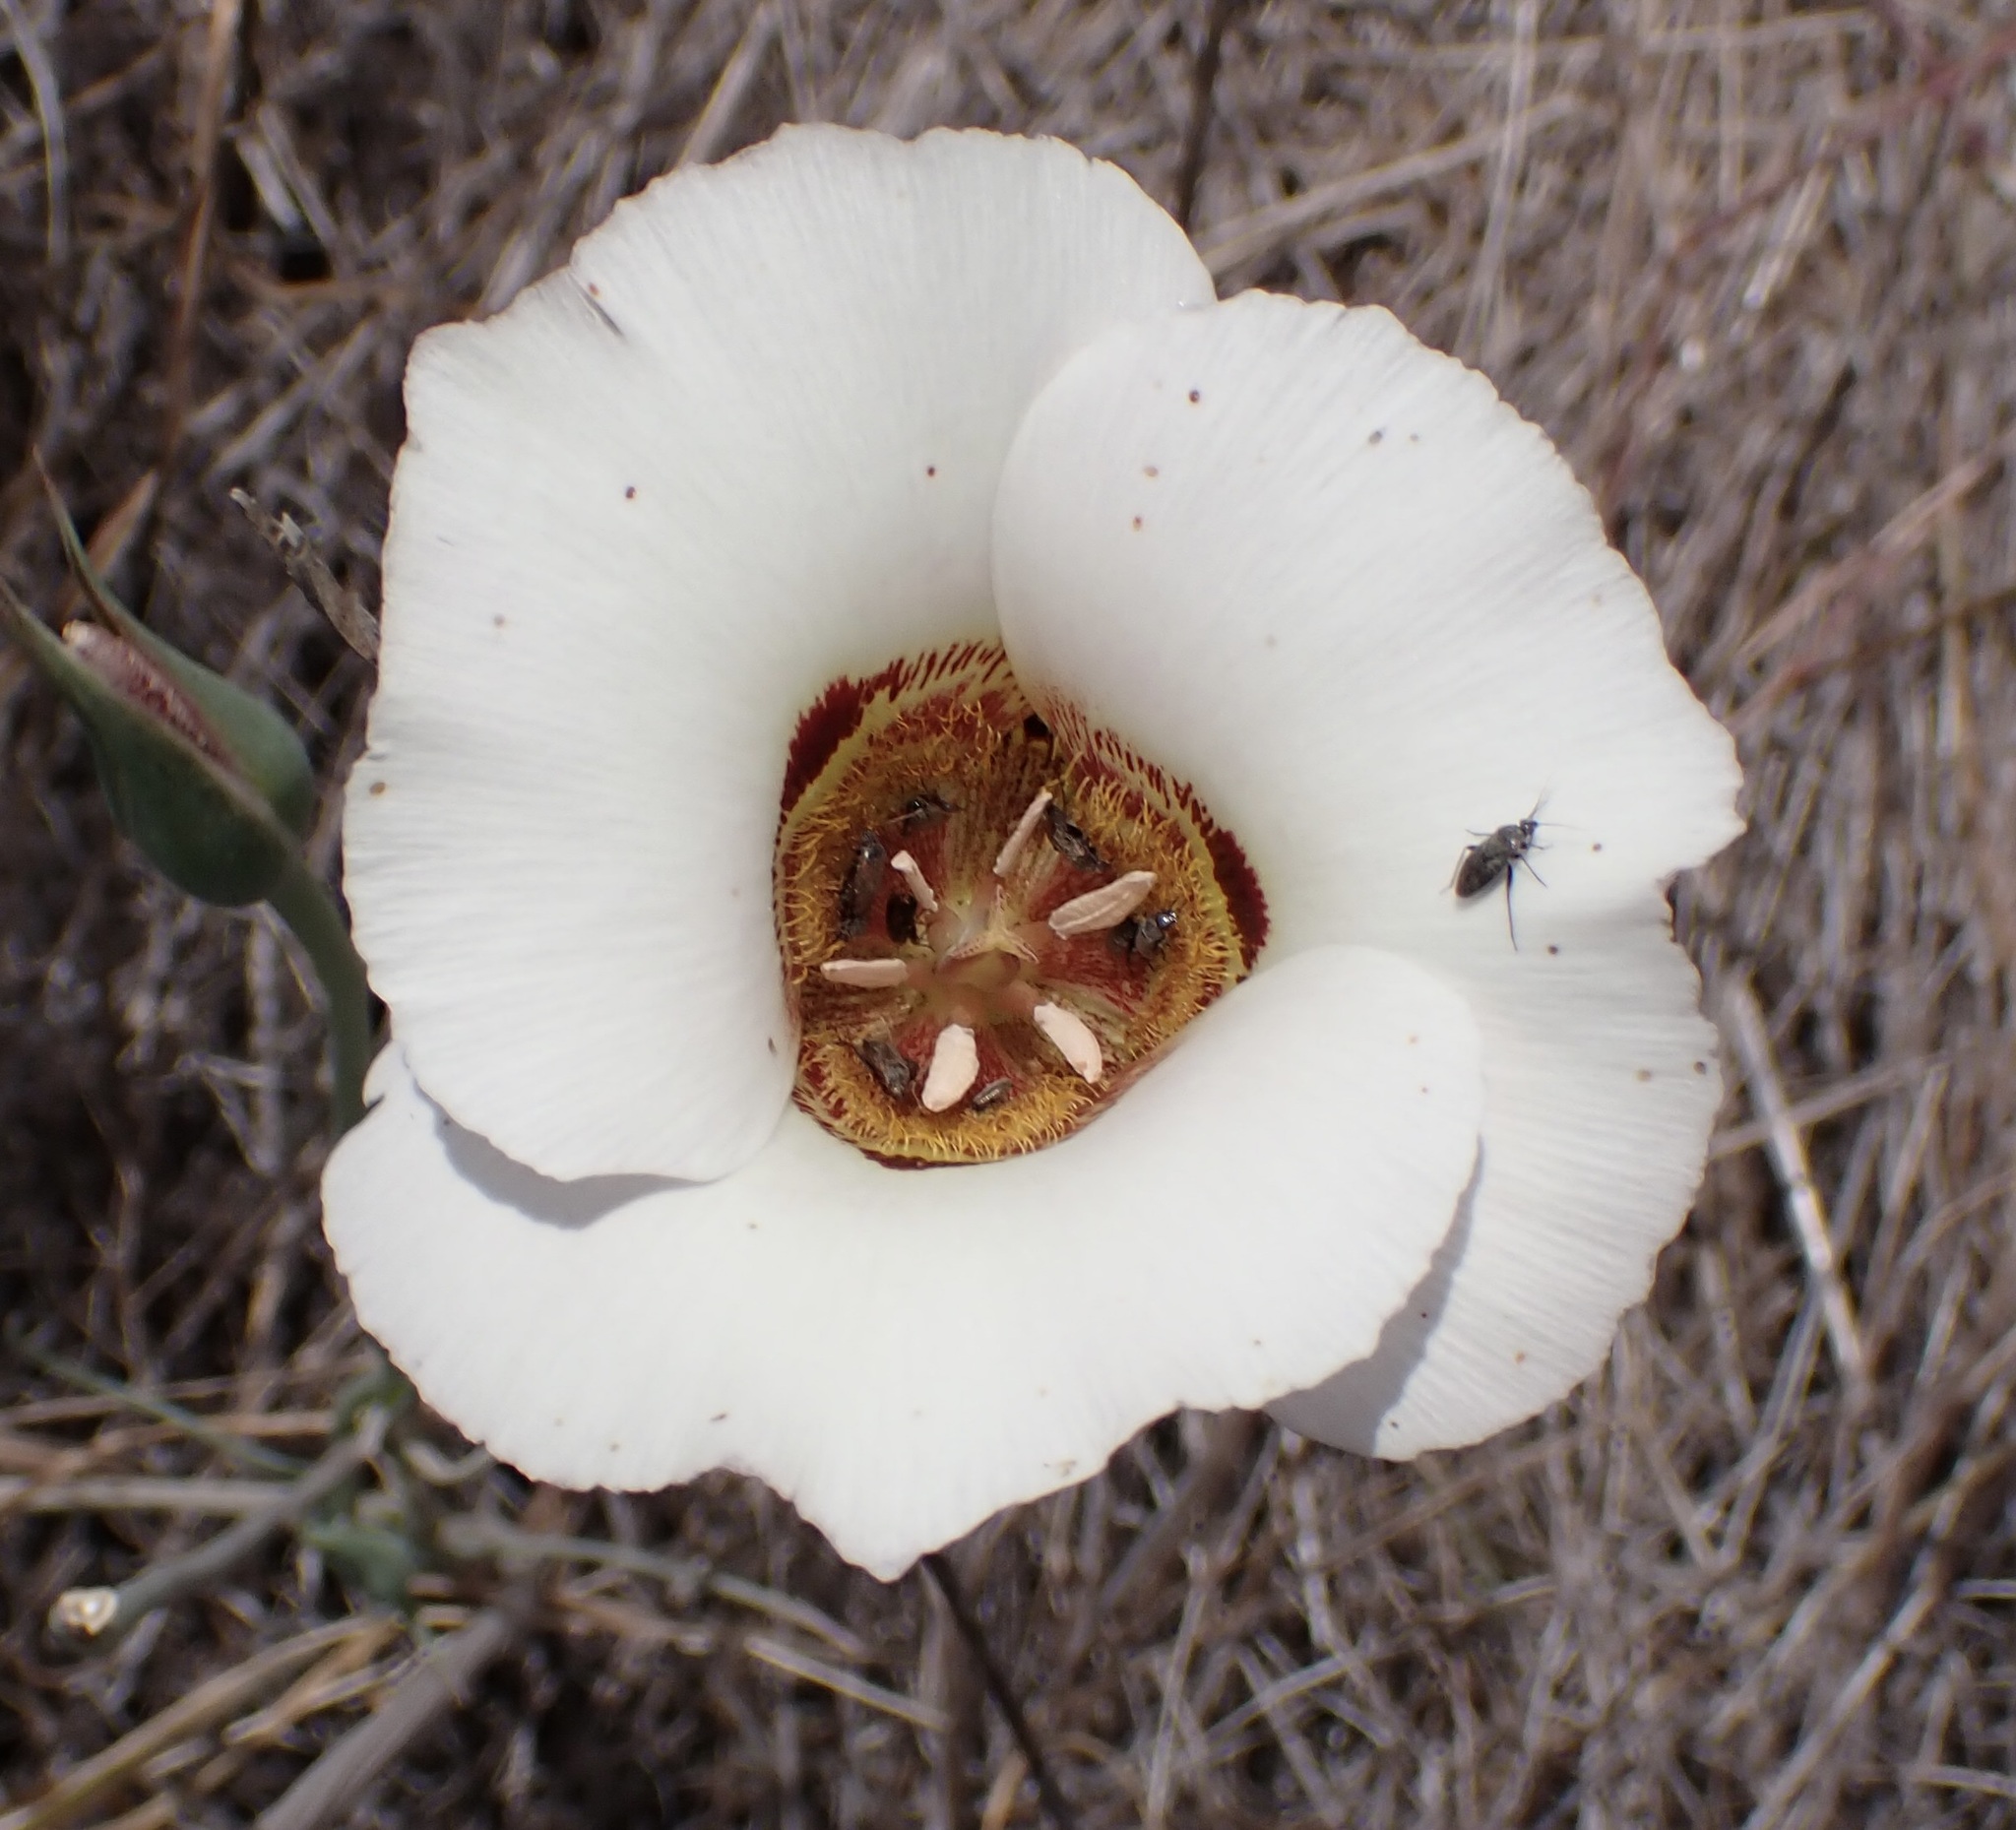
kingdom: Plantae
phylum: Tracheophyta
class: Liliopsida
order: Liliales
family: Liliaceae
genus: Calochortus
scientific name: Calochortus vestae
